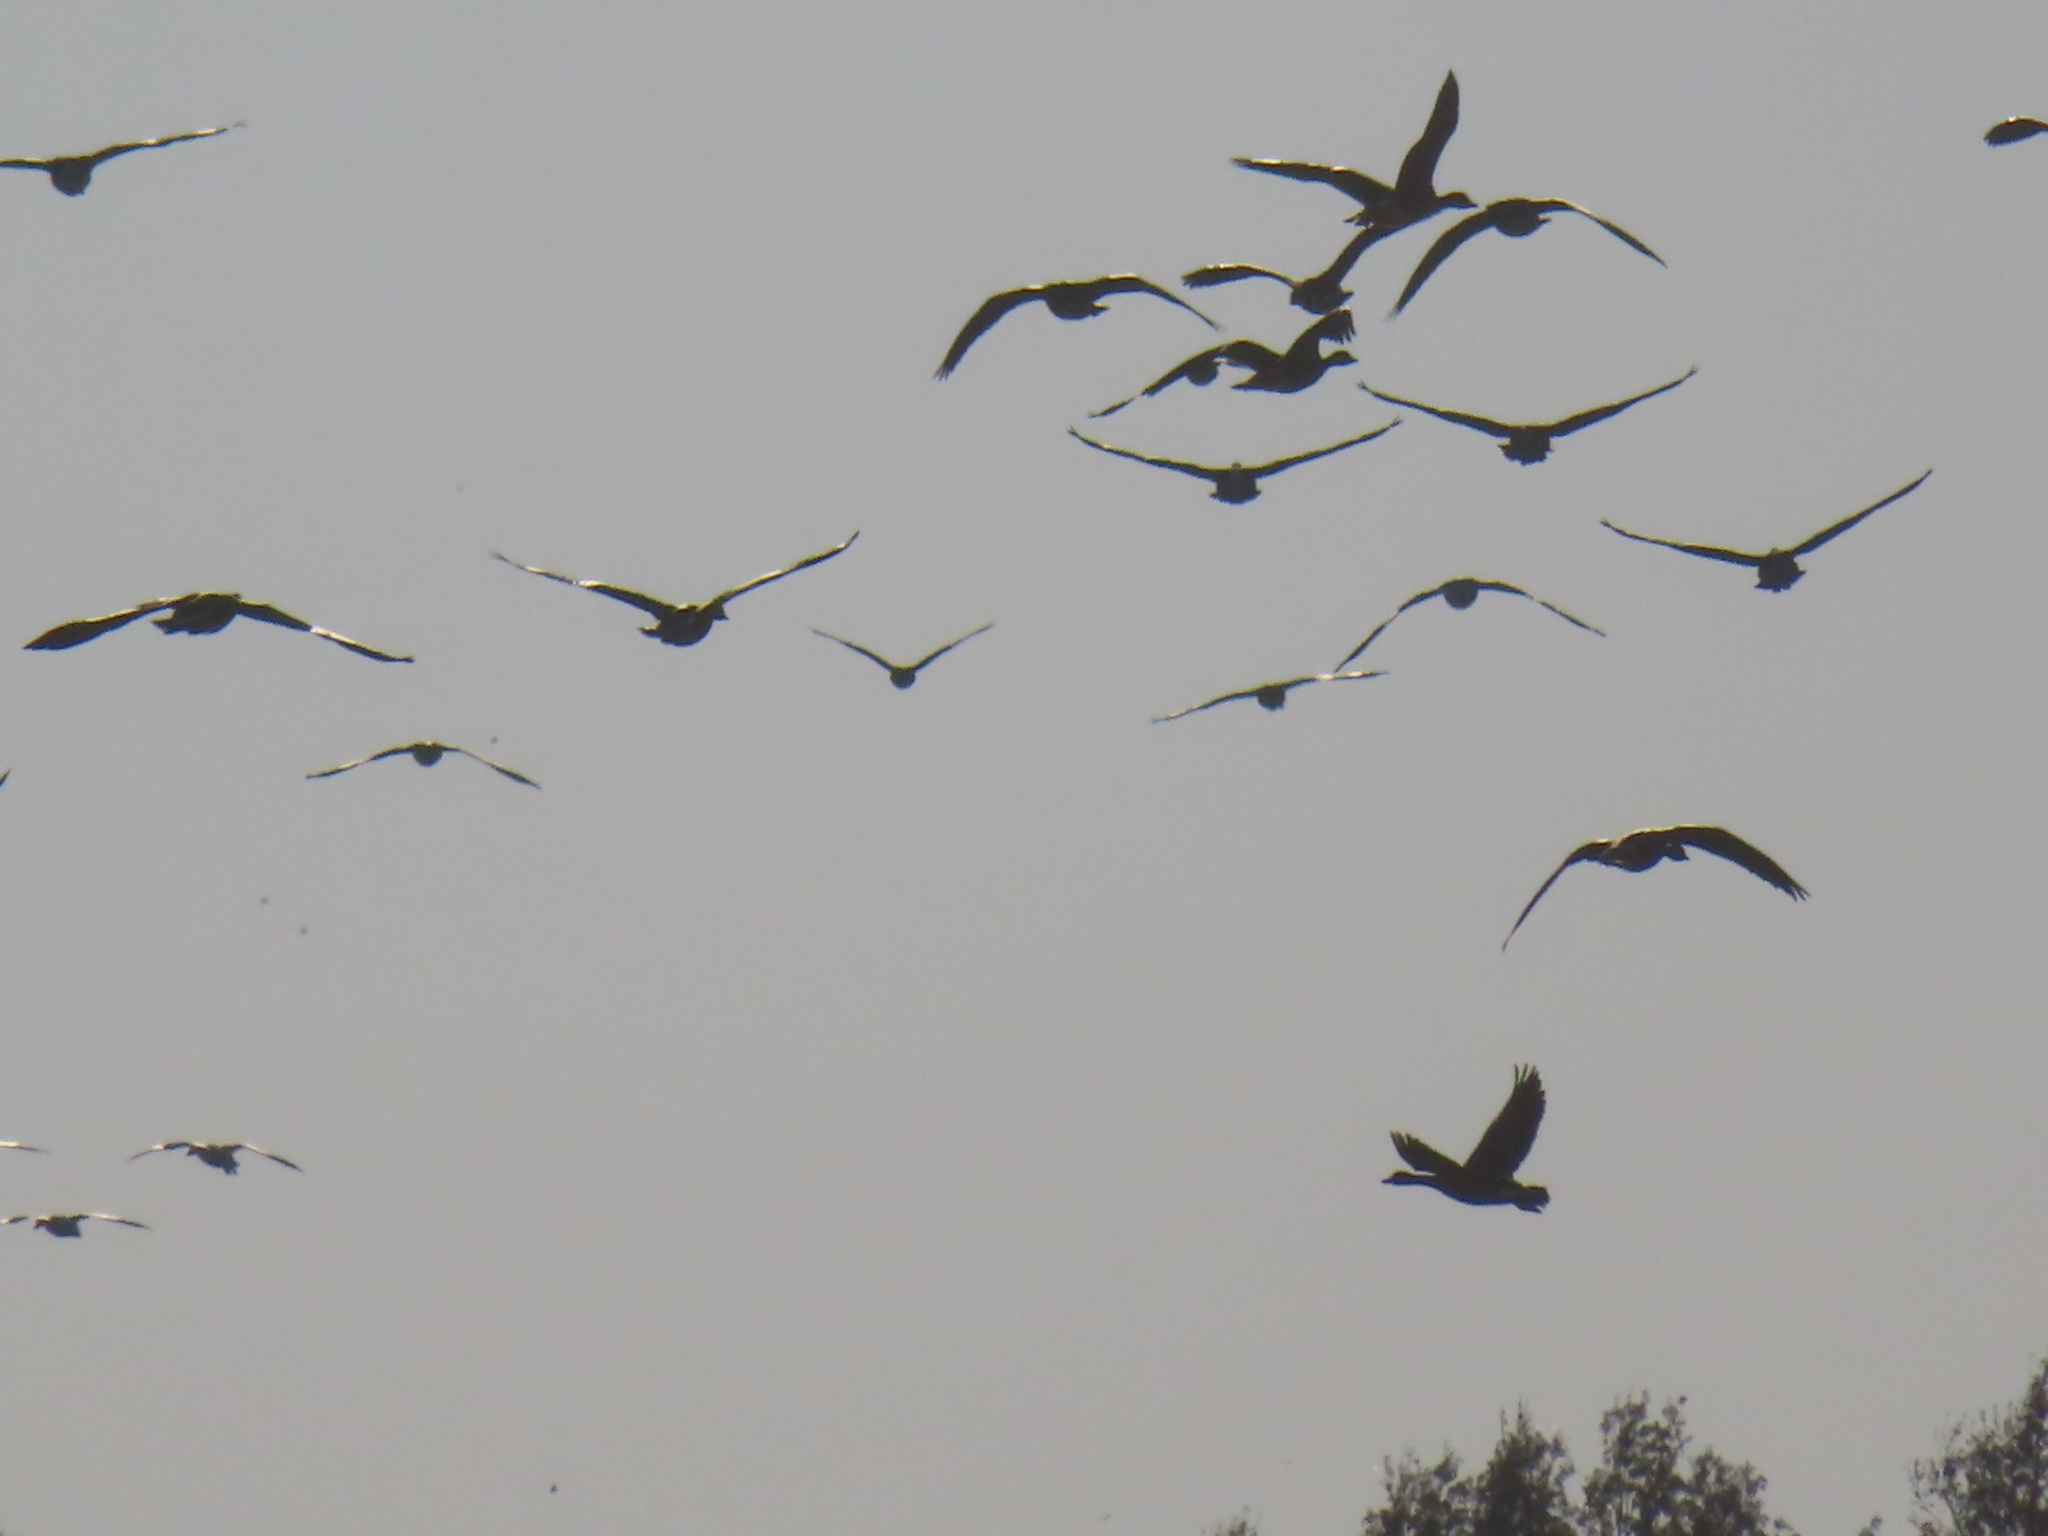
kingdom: Animalia
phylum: Chordata
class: Aves
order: Anseriformes
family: Anatidae
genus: Anser
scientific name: Anser caerulescens
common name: Snow goose
